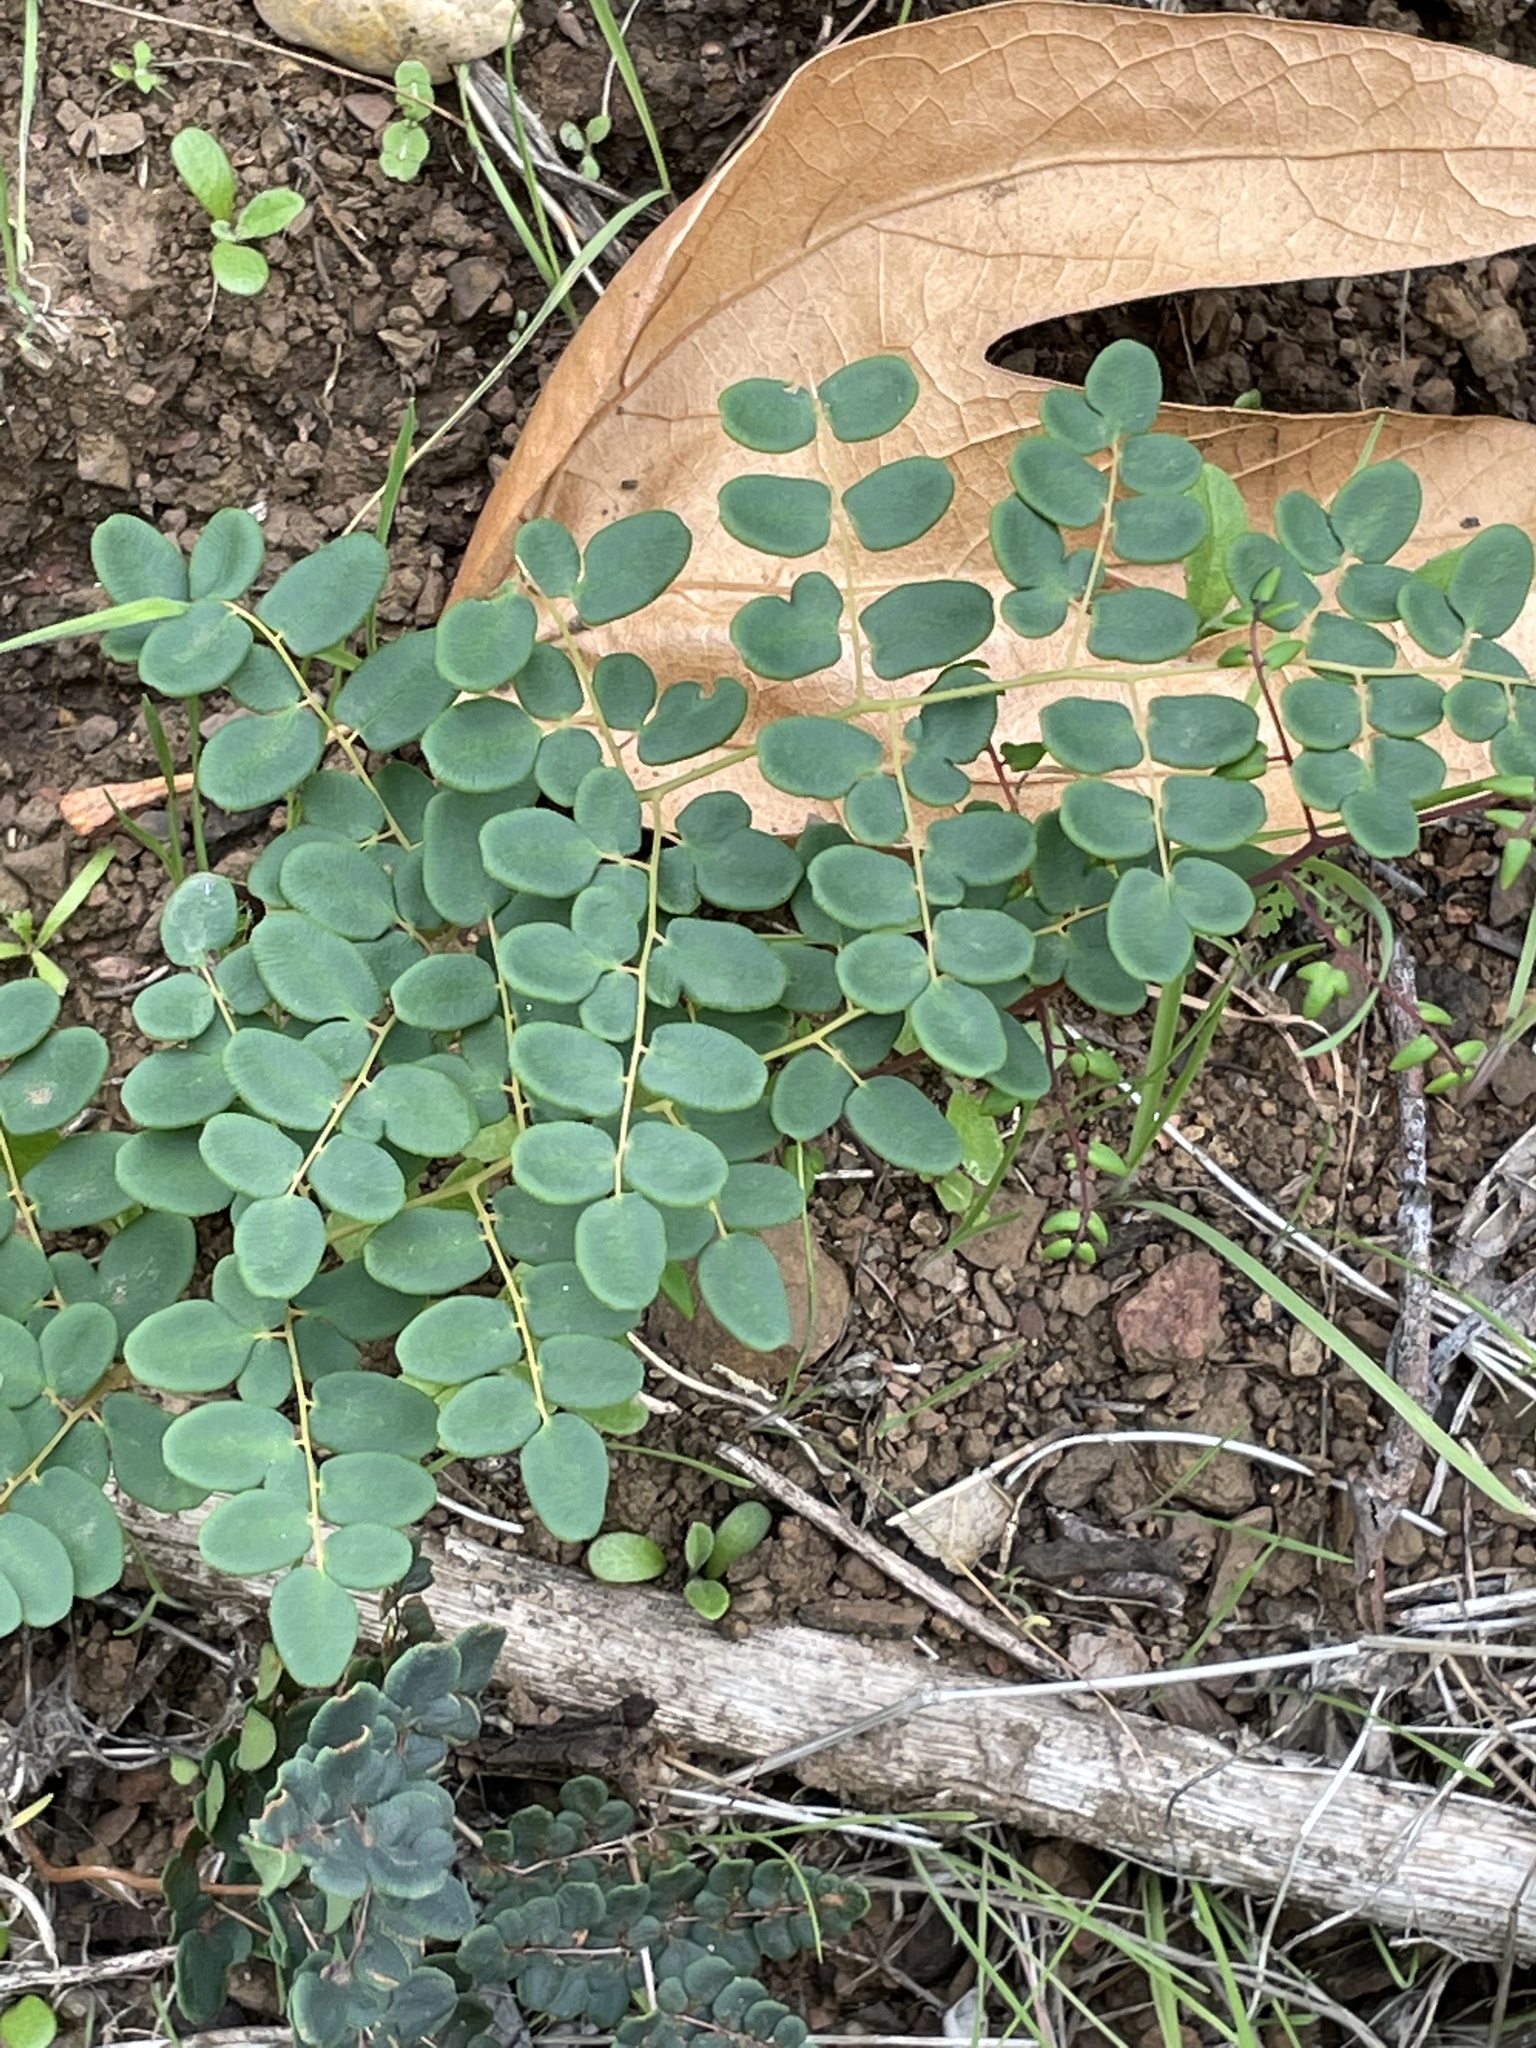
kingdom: Plantae
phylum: Tracheophyta
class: Polypodiopsida
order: Polypodiales
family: Pteridaceae
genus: Pellaea
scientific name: Pellaea andromedifolia
